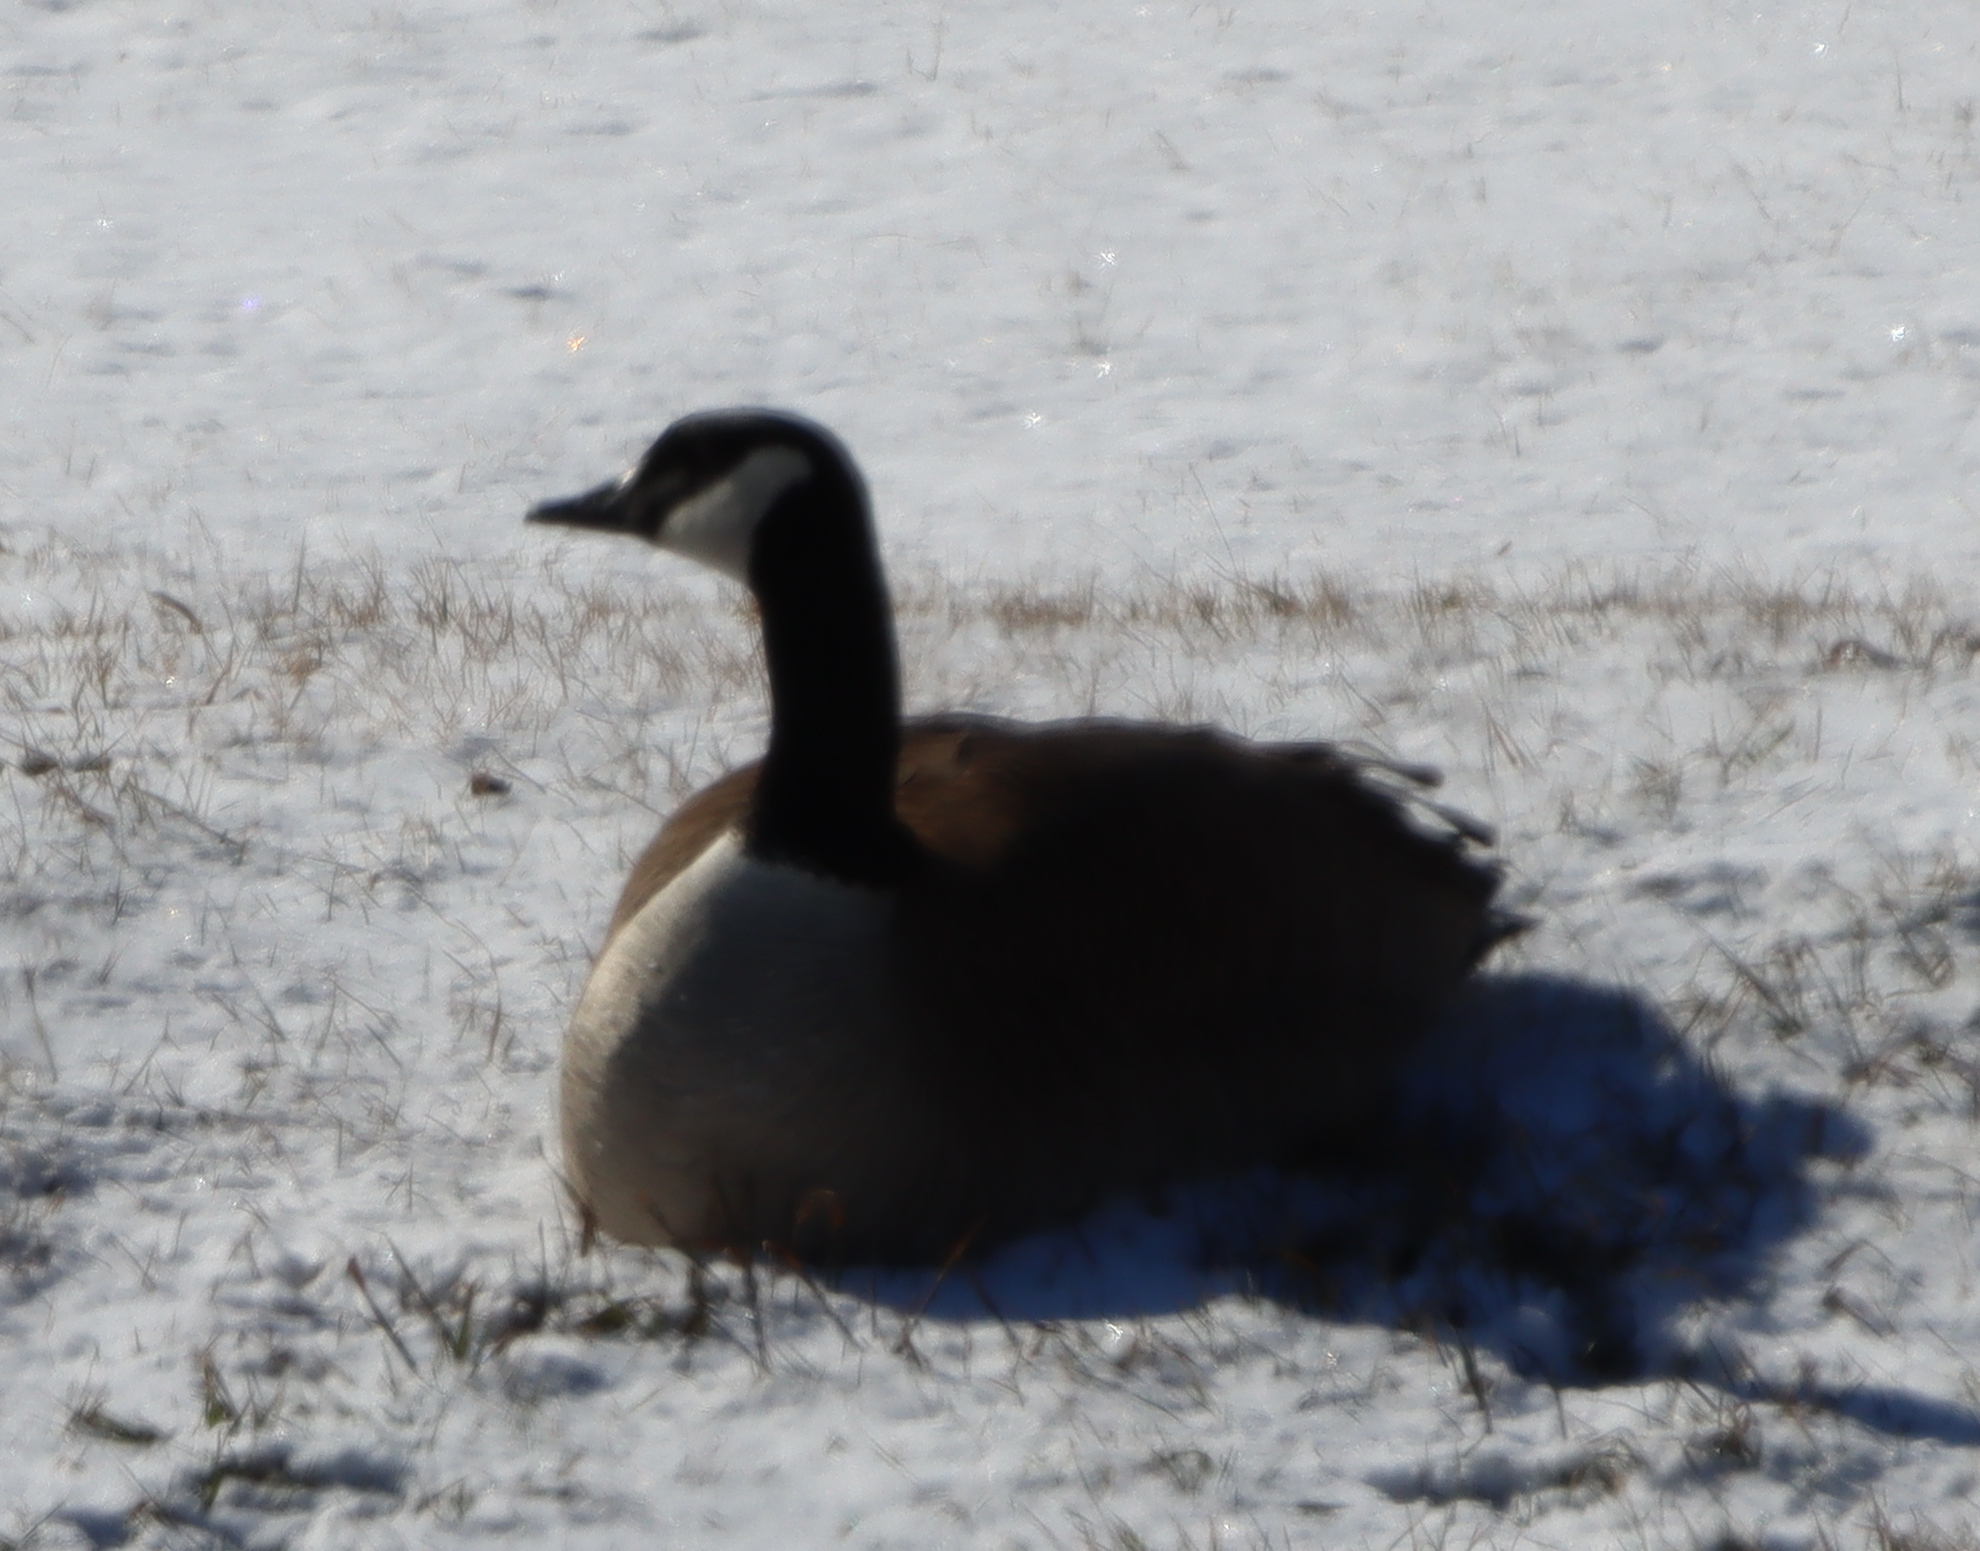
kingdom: Animalia
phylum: Chordata
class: Aves
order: Anseriformes
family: Anatidae
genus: Branta
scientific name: Branta canadensis
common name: Canada goose
